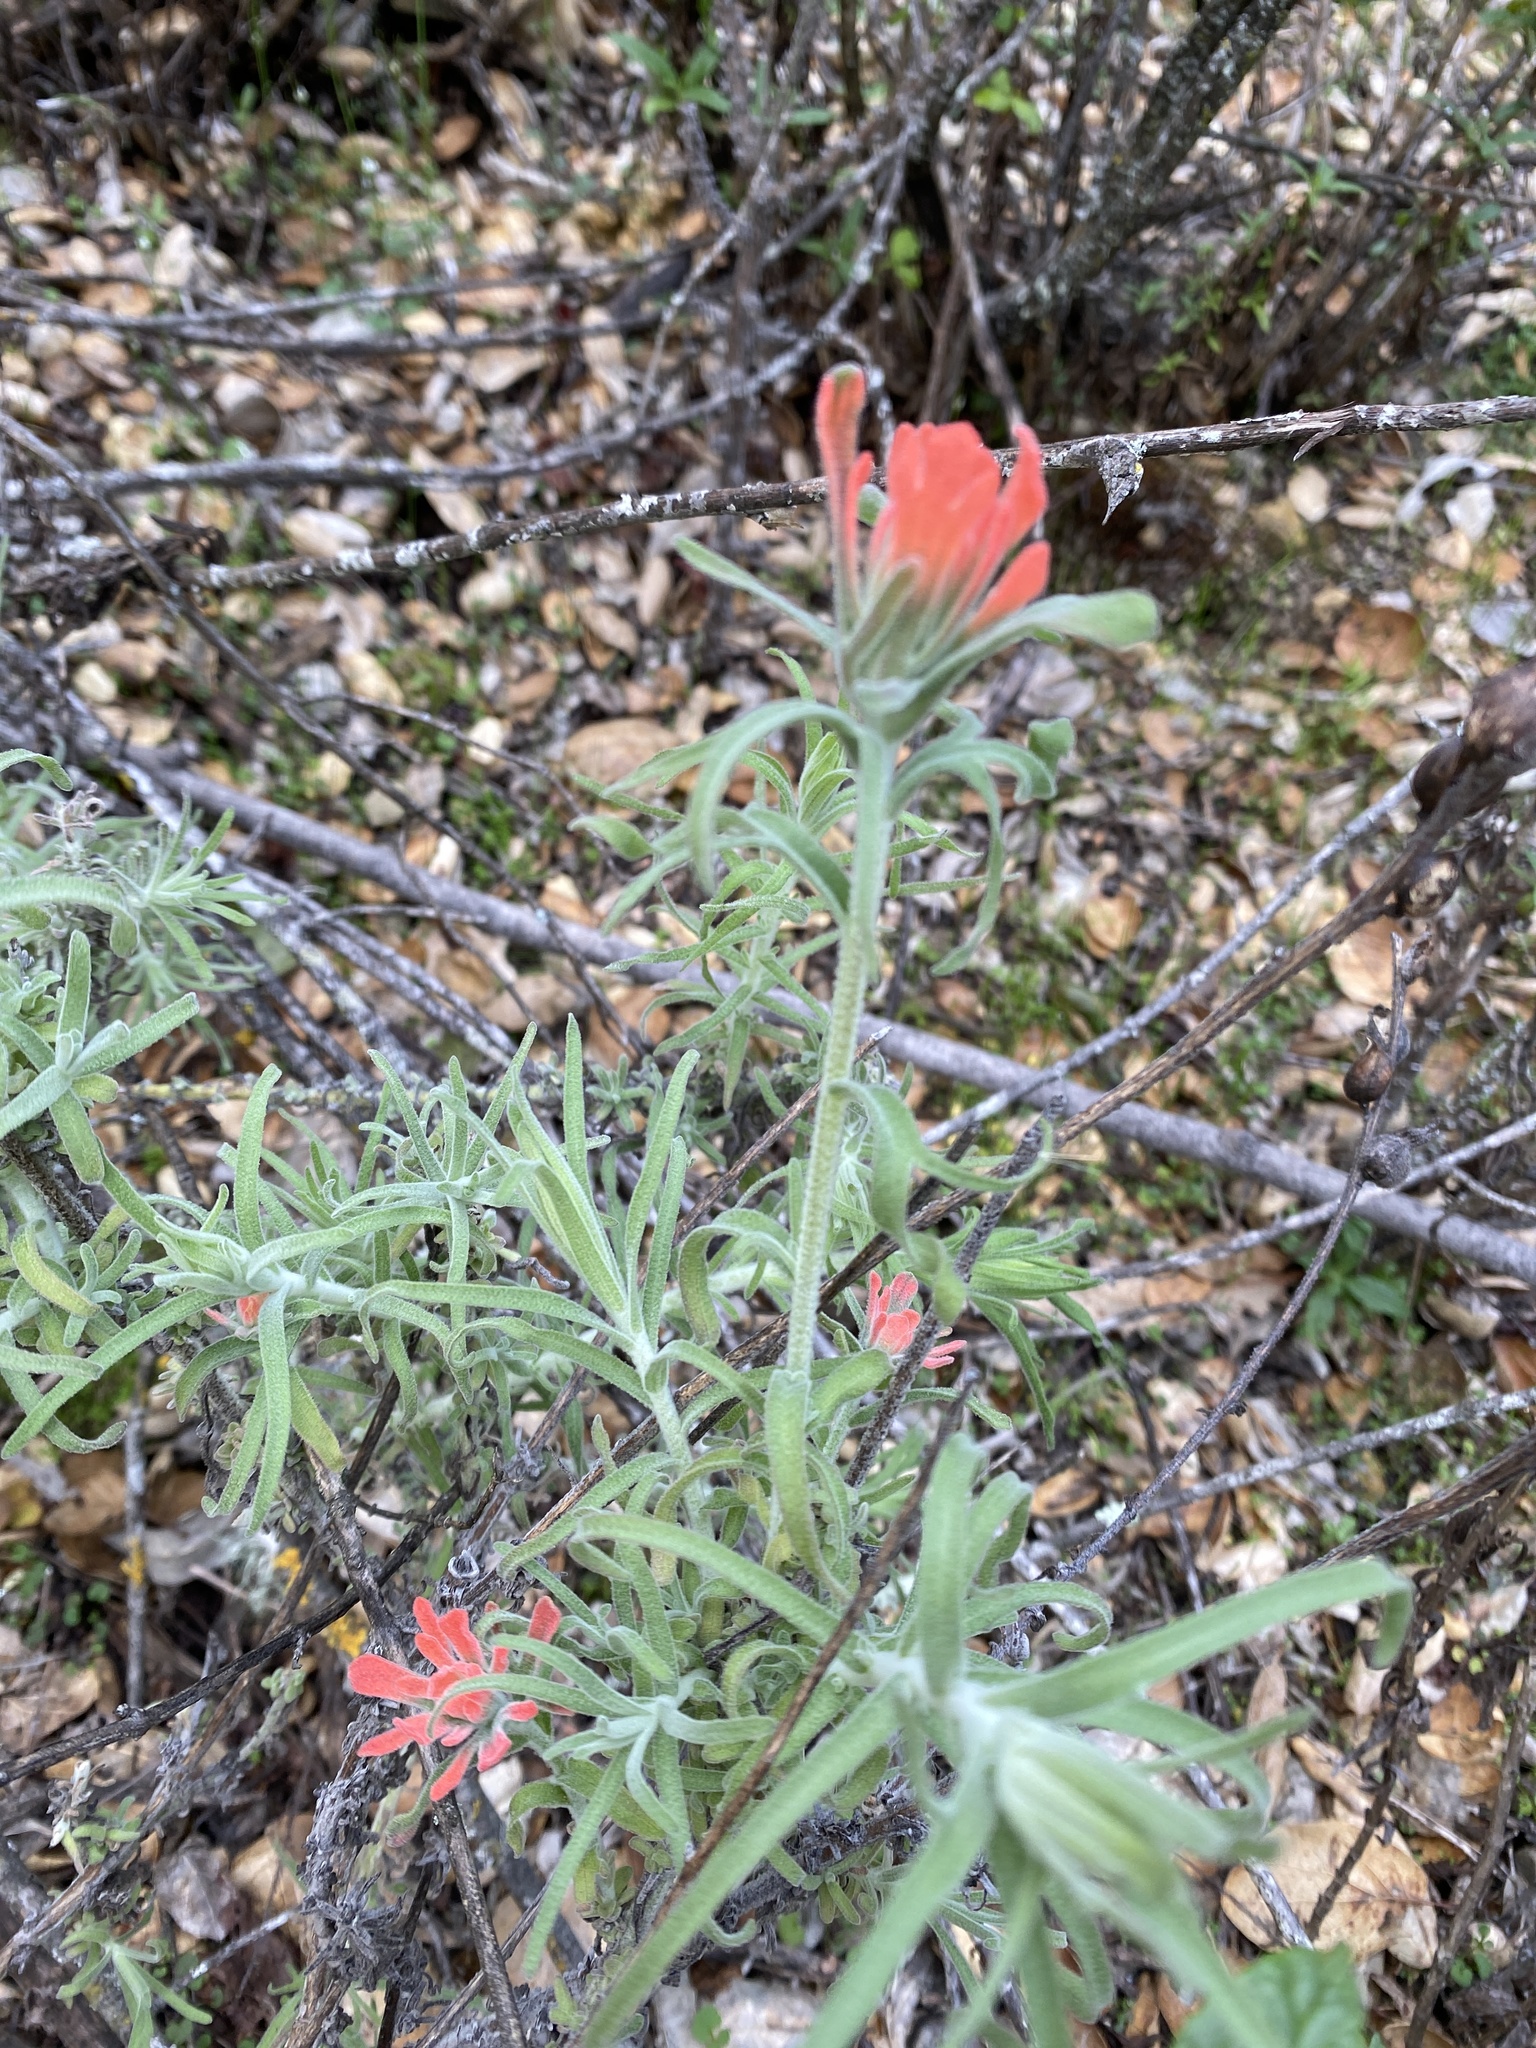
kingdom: Plantae
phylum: Tracheophyta
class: Magnoliopsida
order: Lamiales
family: Orobanchaceae
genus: Castilleja
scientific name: Castilleja foliolosa
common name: Woolly indian paintbrush
